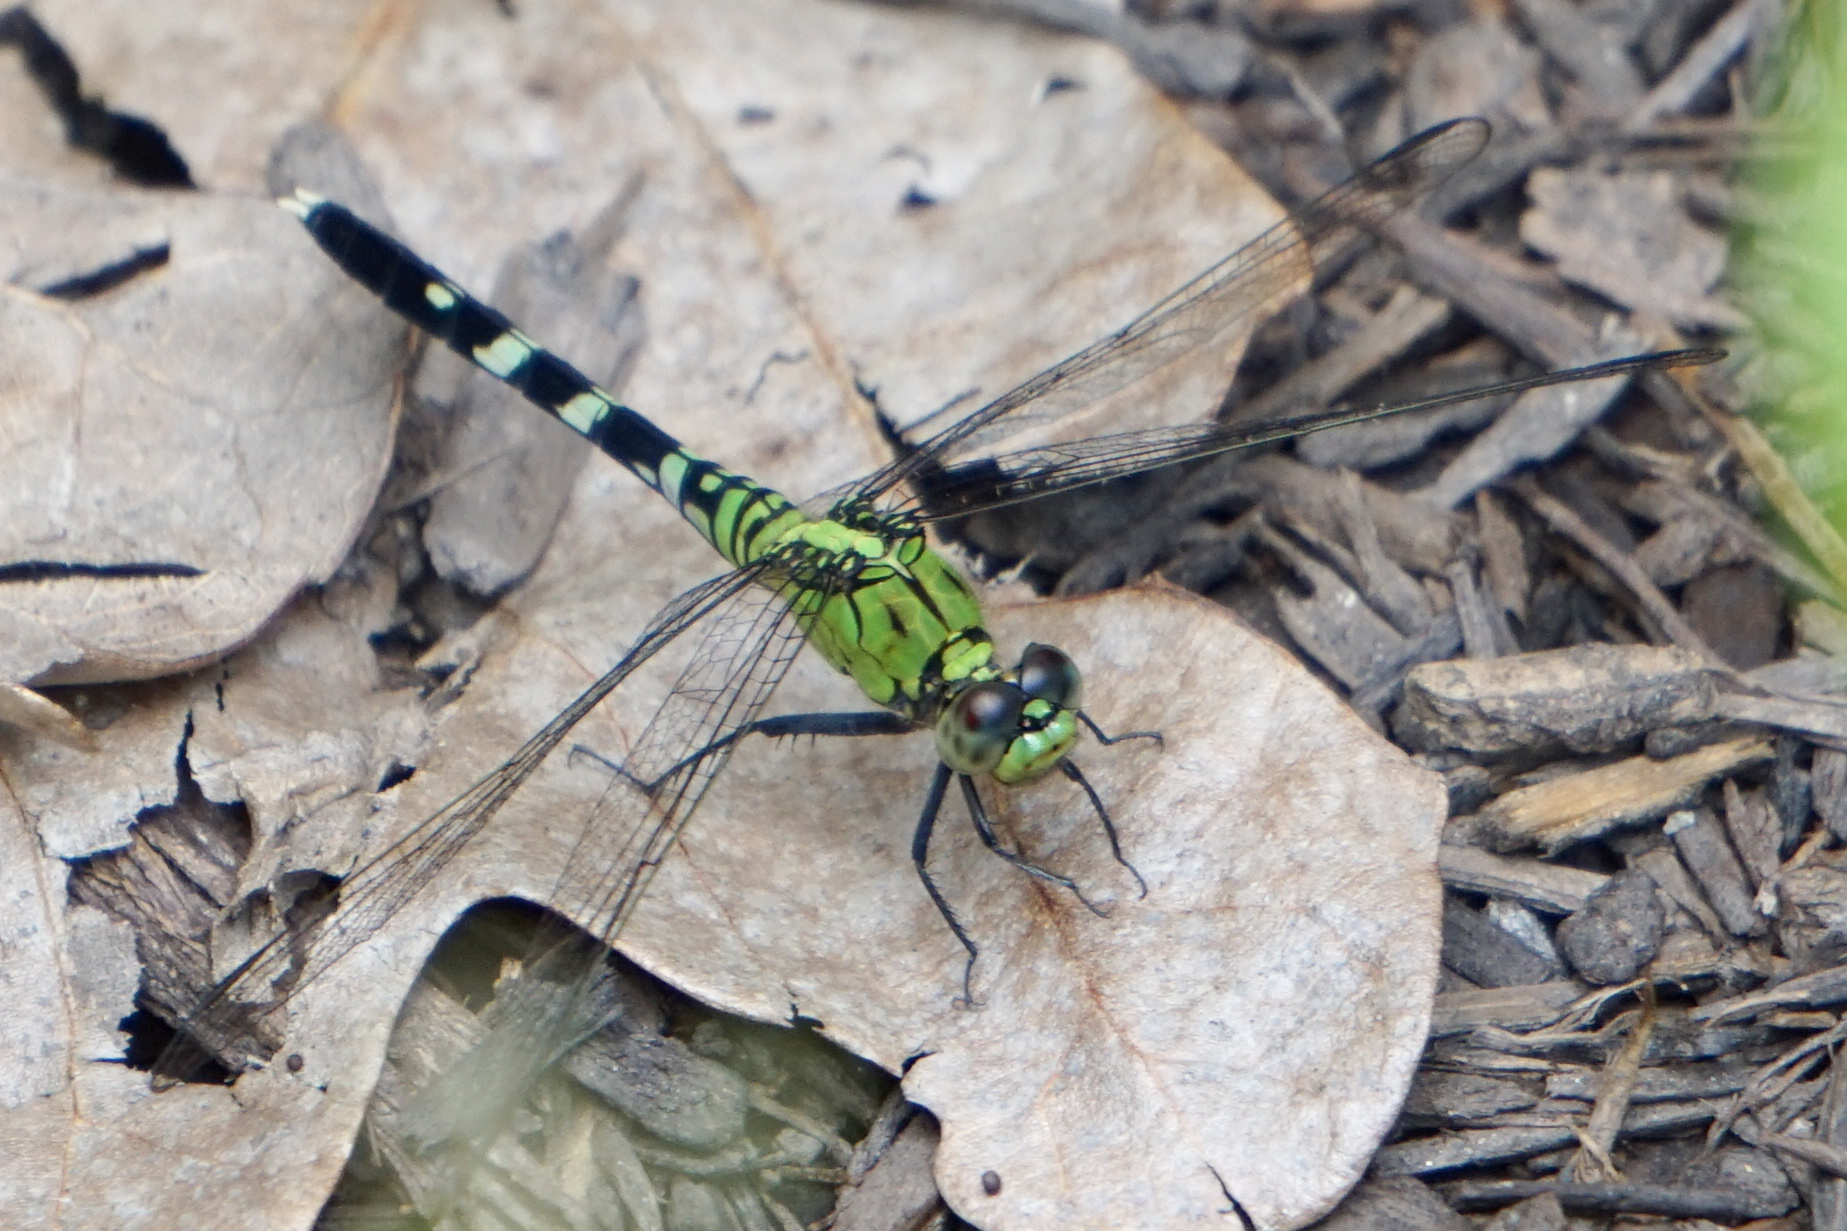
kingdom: Animalia
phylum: Arthropoda
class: Insecta
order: Odonata
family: Libellulidae
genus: Erythemis
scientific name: Erythemis simplicicollis
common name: Eastern pondhawk
